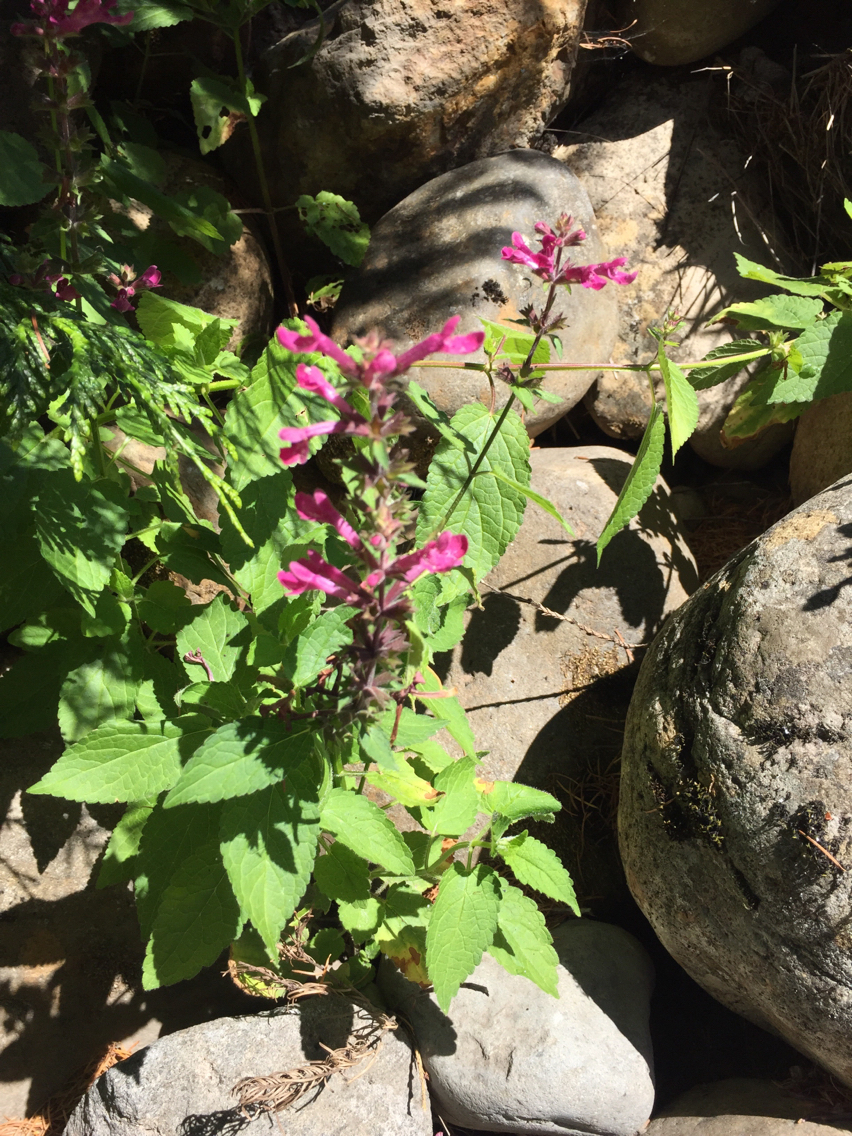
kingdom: Plantae
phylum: Tracheophyta
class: Magnoliopsida
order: Lamiales
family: Lamiaceae
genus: Stachys
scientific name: Stachys chamissonis
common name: Coastal hedge-nettle
